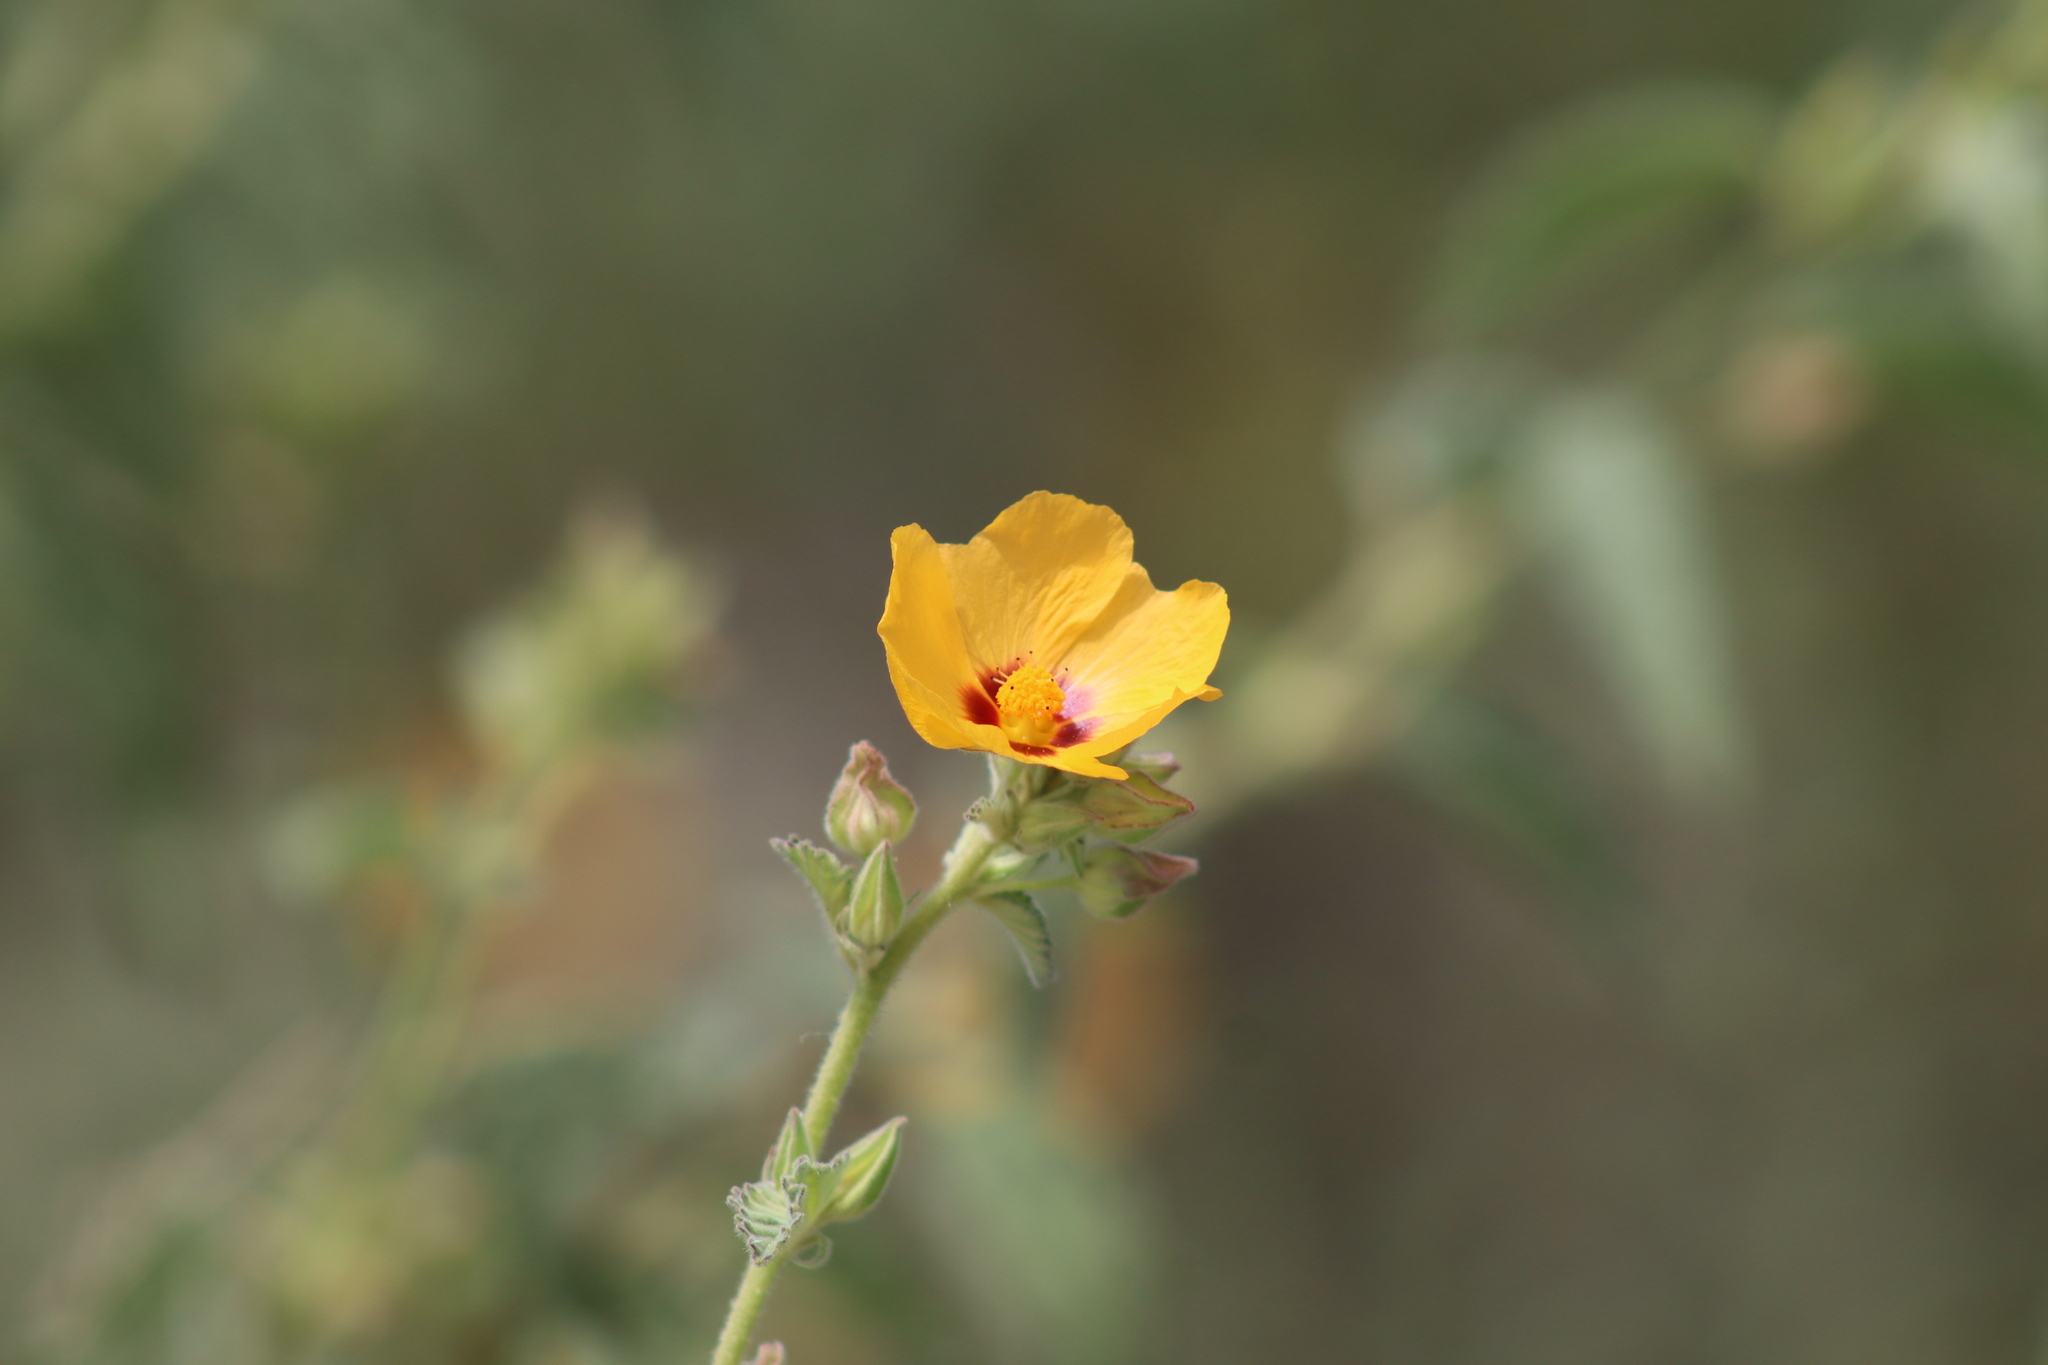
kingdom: Plantae
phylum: Tracheophyta
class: Magnoliopsida
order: Malvales
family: Malvaceae
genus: Sida
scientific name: Sida galheirensis
